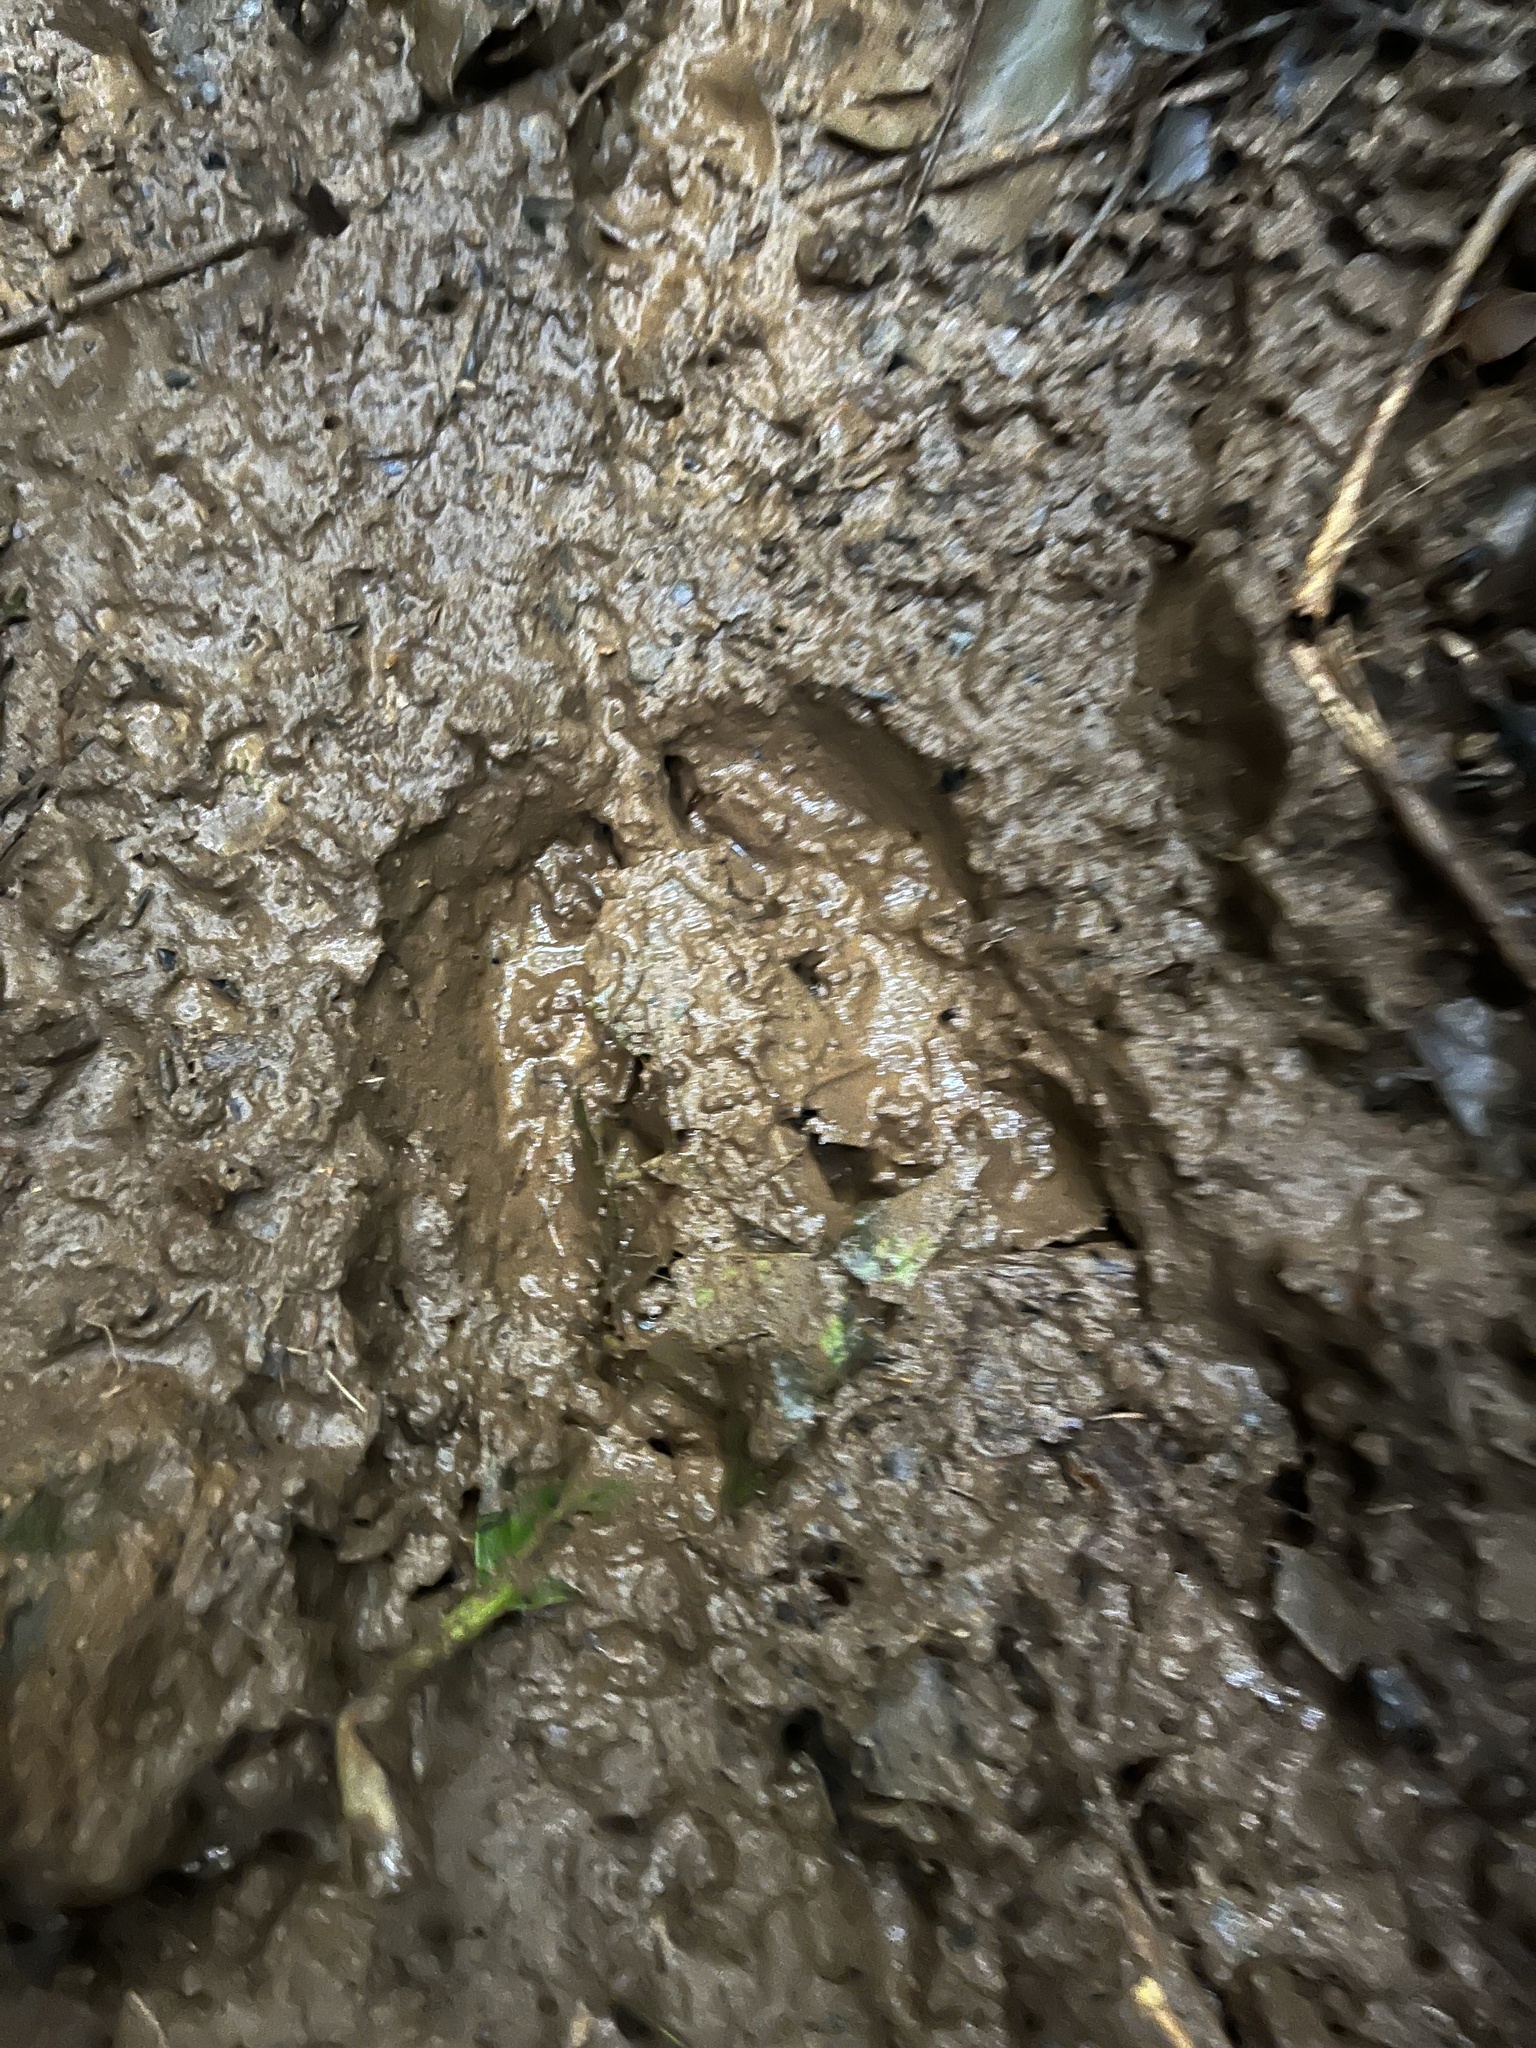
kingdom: Animalia
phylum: Chordata
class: Mammalia
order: Perissodactyla
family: Tapiridae
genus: Tapirella
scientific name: Tapirella bairdii
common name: Baird's tapir
